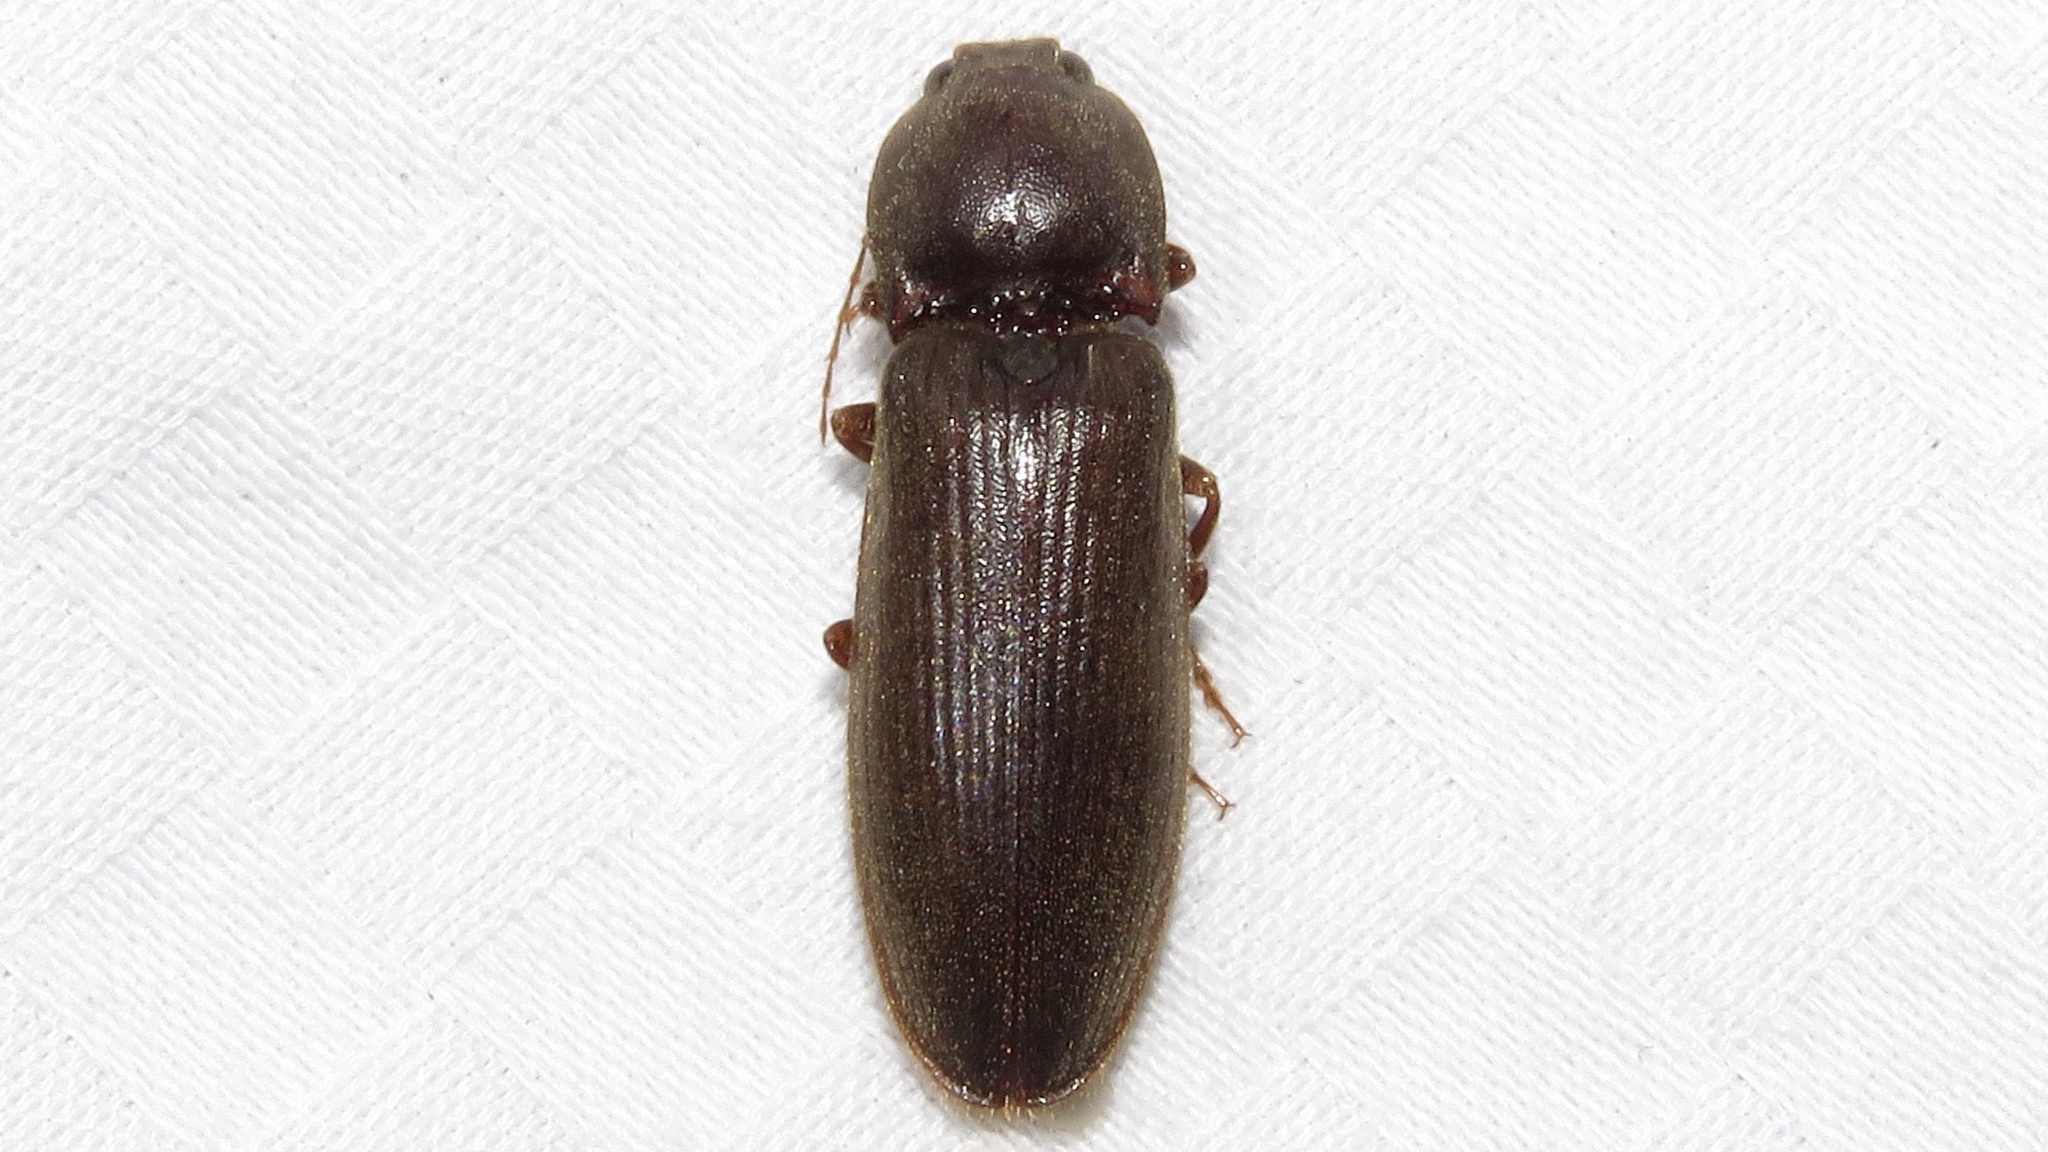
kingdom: Animalia
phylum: Arthropoda
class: Insecta
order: Coleoptera
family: Elateridae
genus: Hemicrepidius
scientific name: Hemicrepidius
